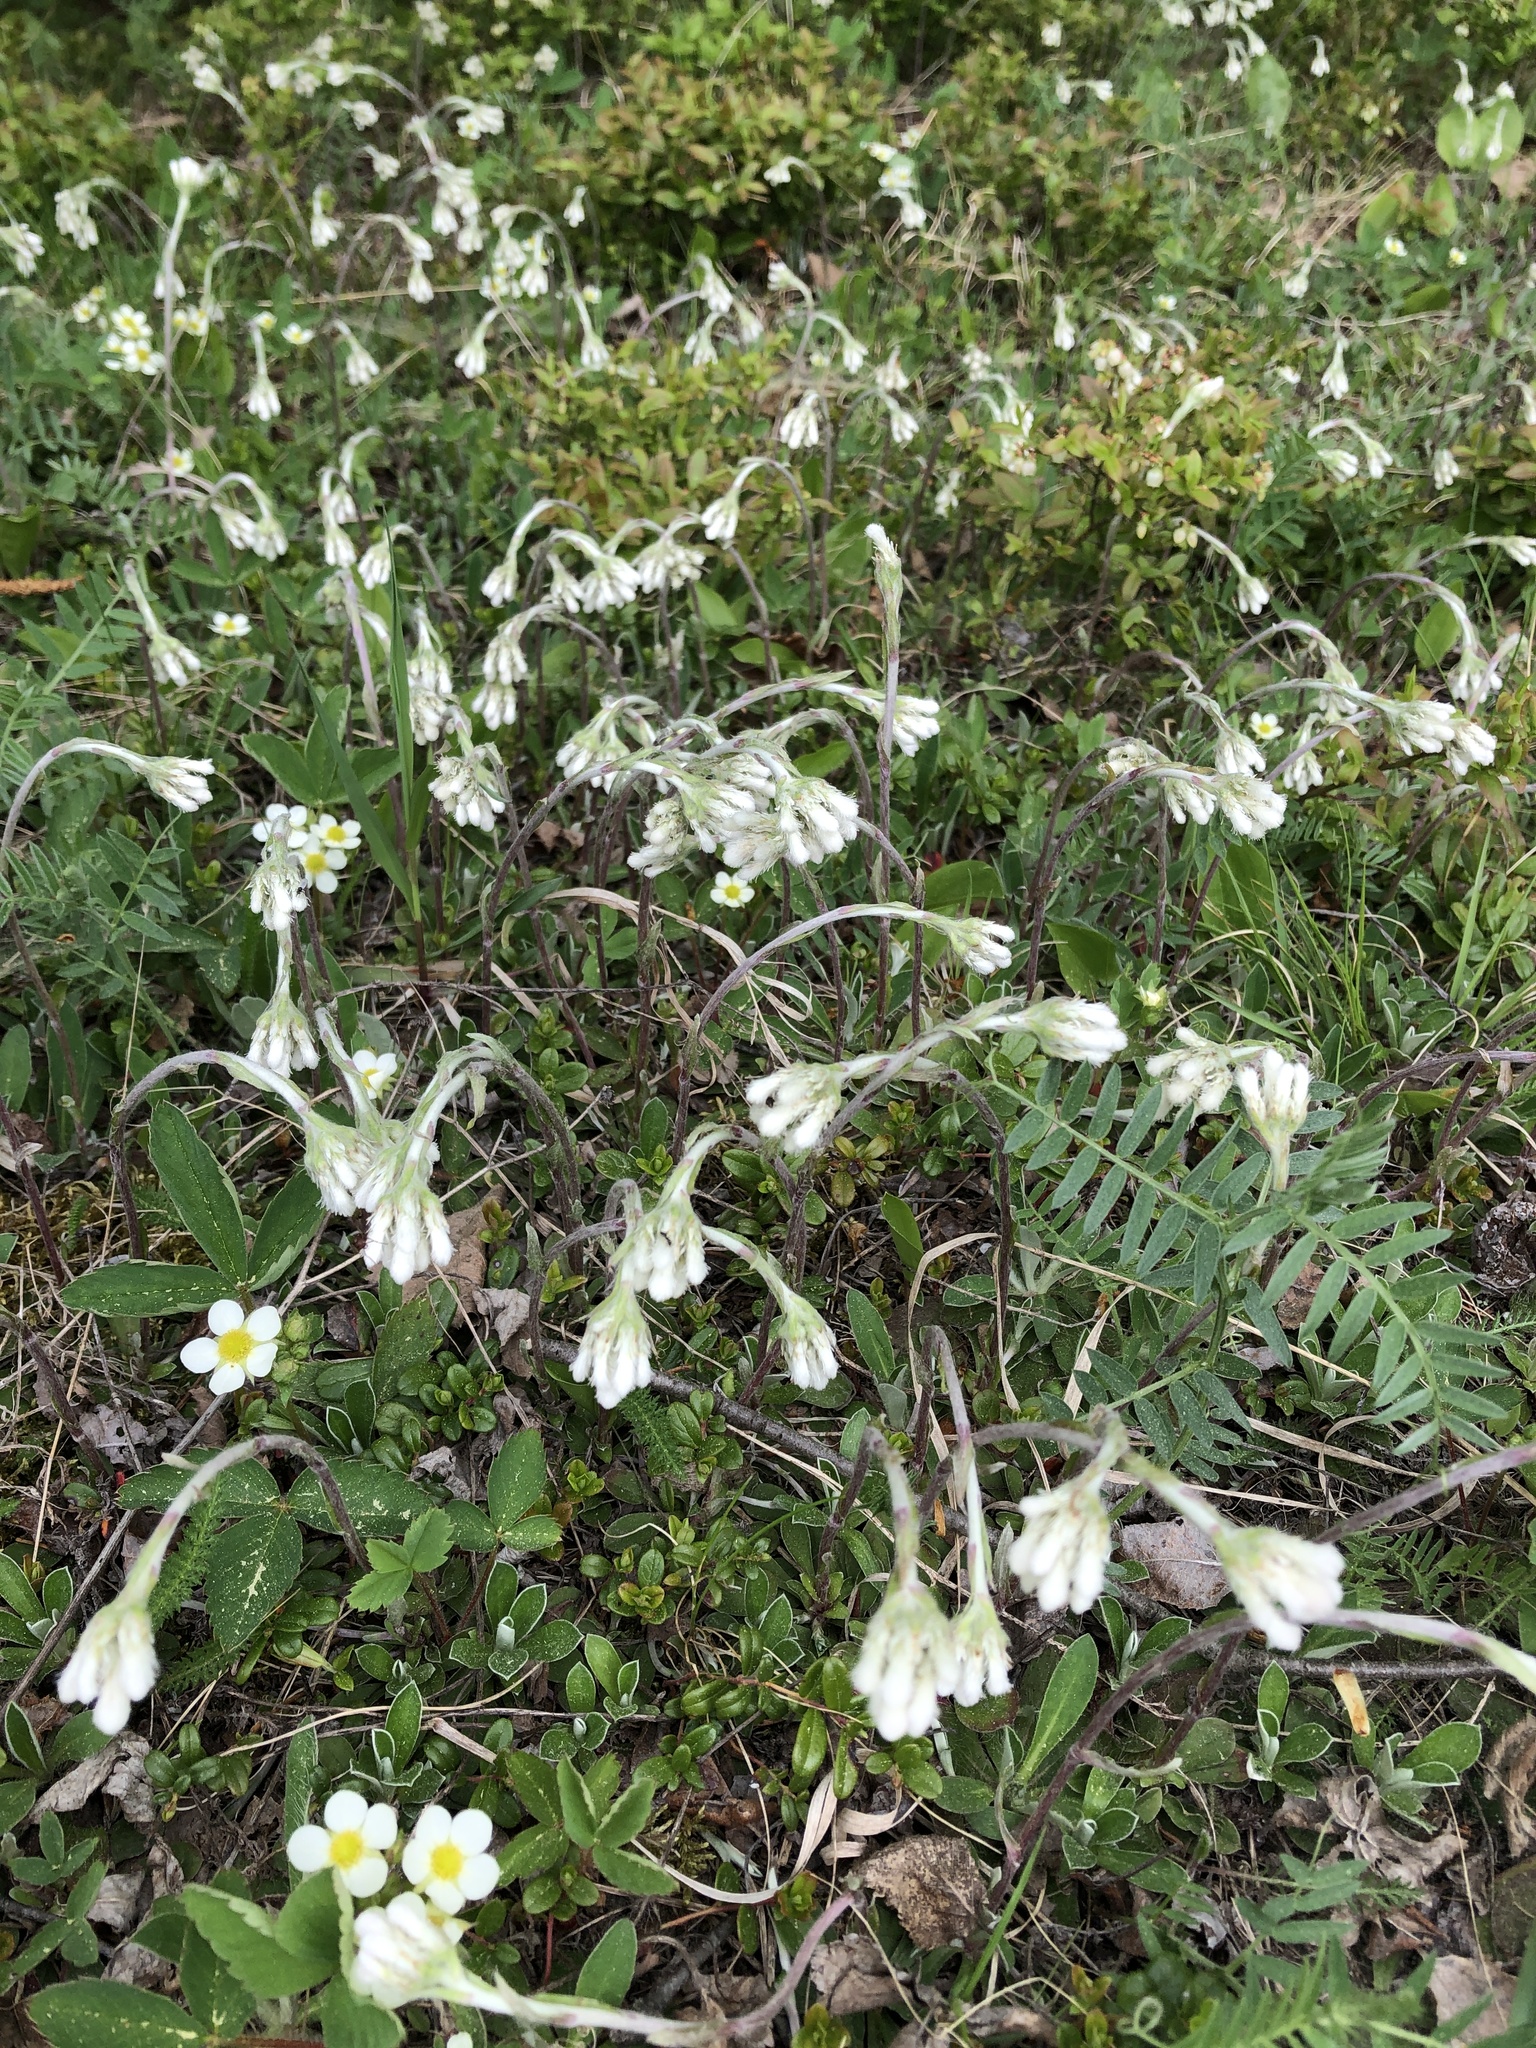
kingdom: Plantae
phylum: Tracheophyta
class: Magnoliopsida
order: Asterales
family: Asteraceae
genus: Antennaria
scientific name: Antennaria howellii
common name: Howell's pussytoes
